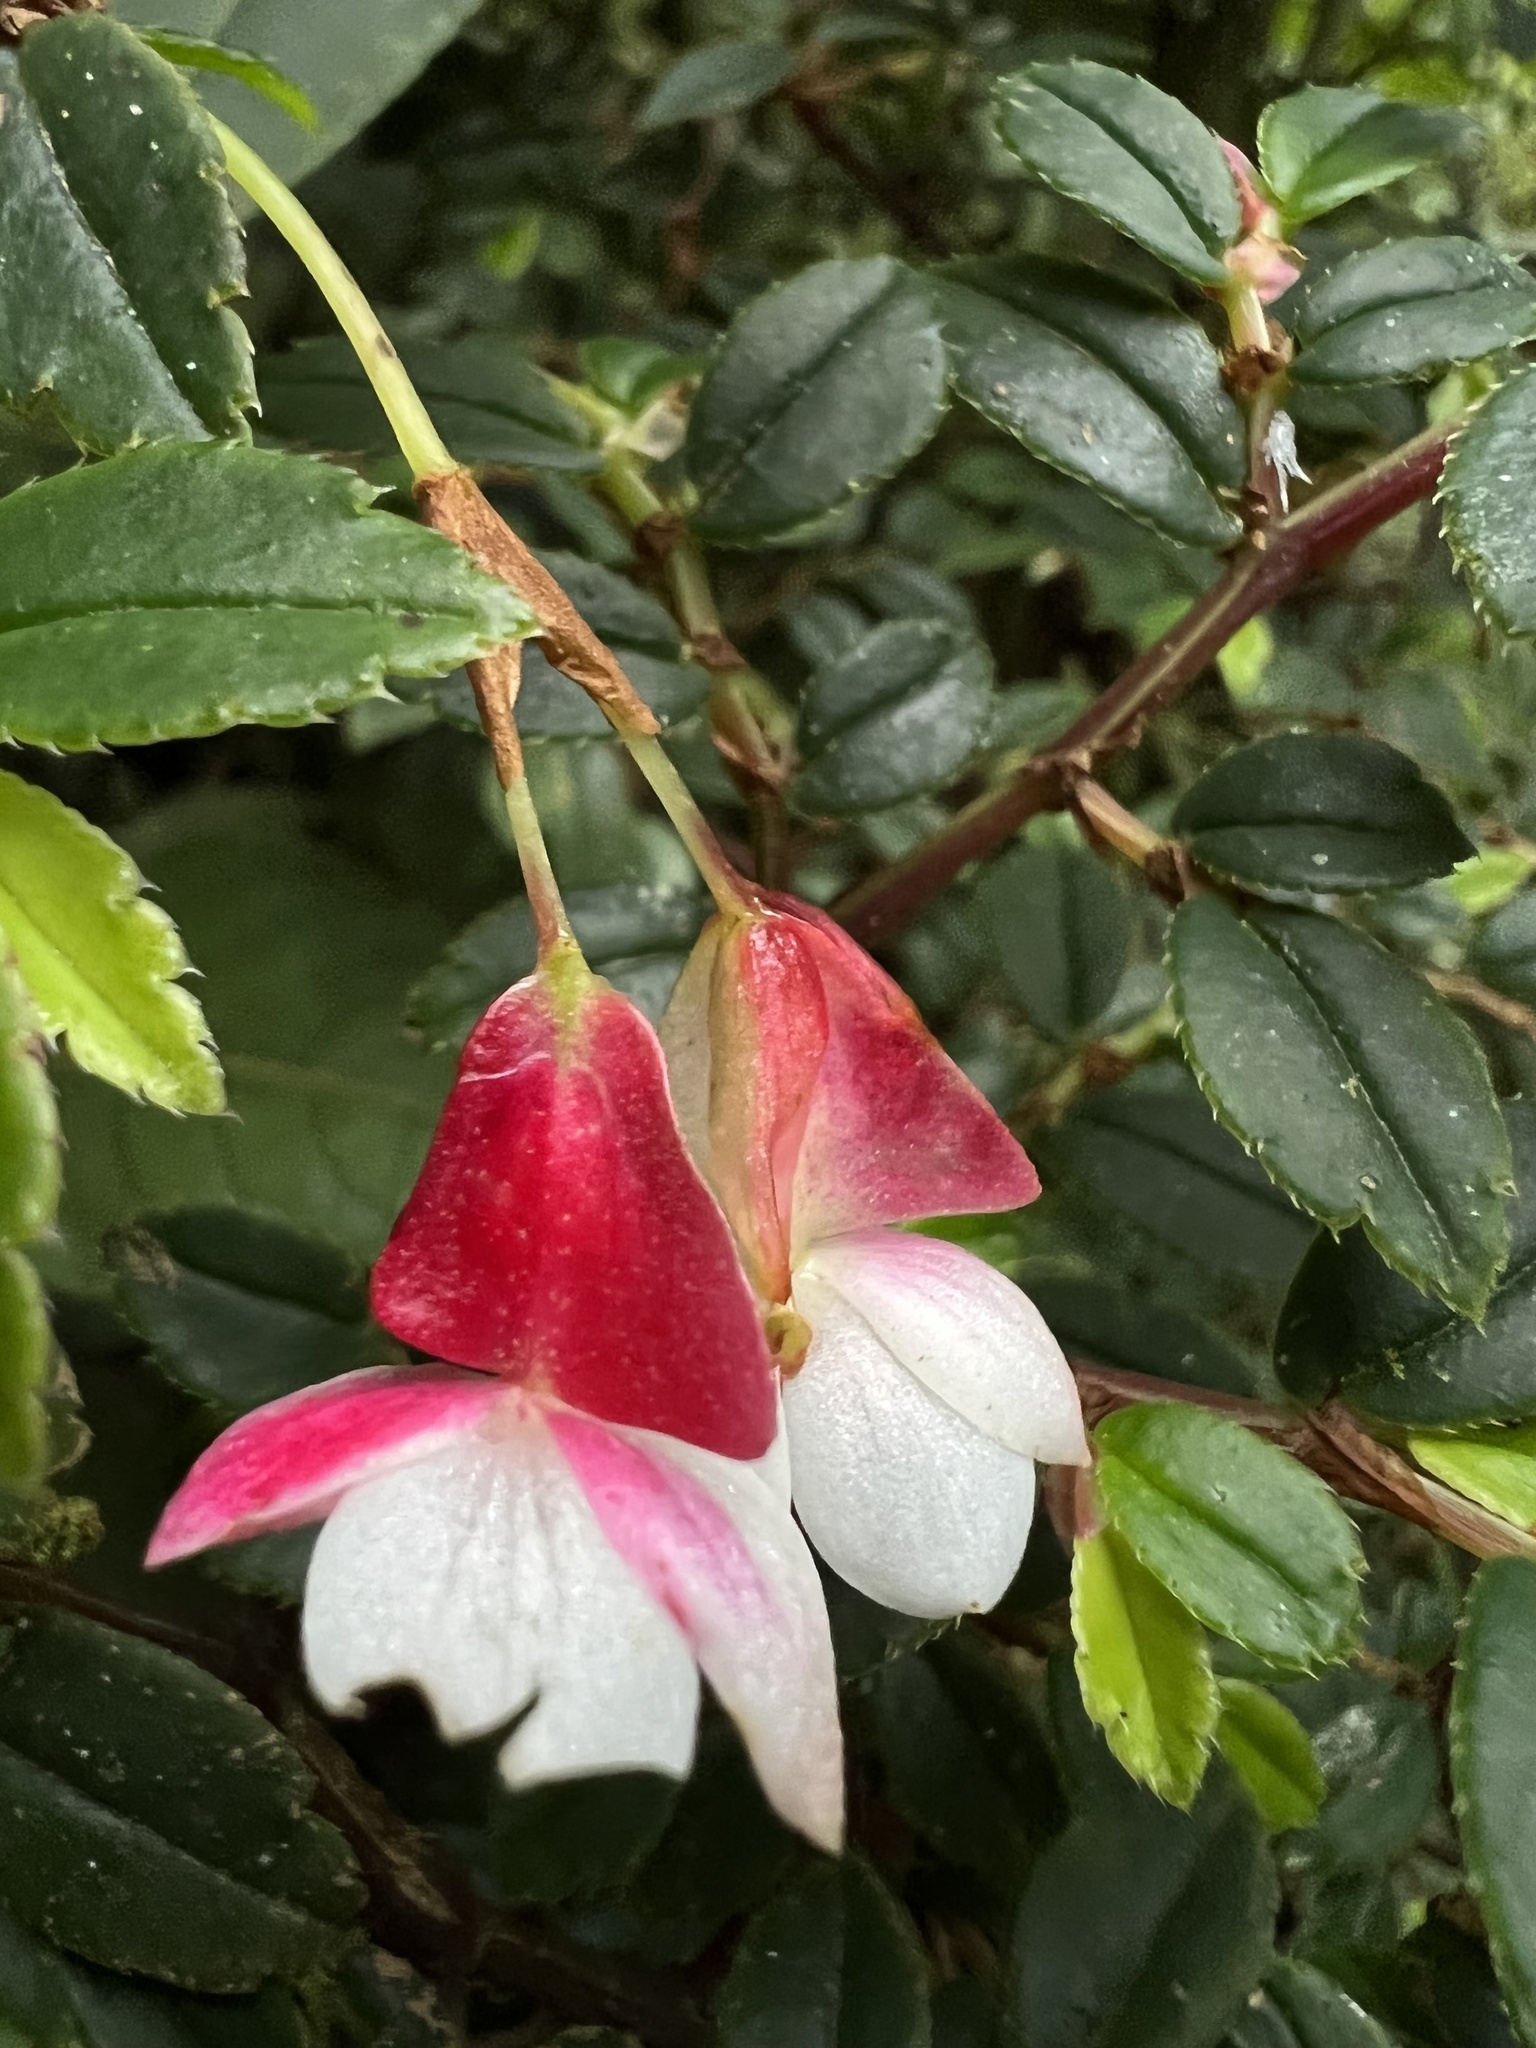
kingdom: Plantae
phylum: Tracheophyta
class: Magnoliopsida
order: Cucurbitales
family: Begoniaceae
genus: Begonia
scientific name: Begonia foliosa
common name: Fern begonia
